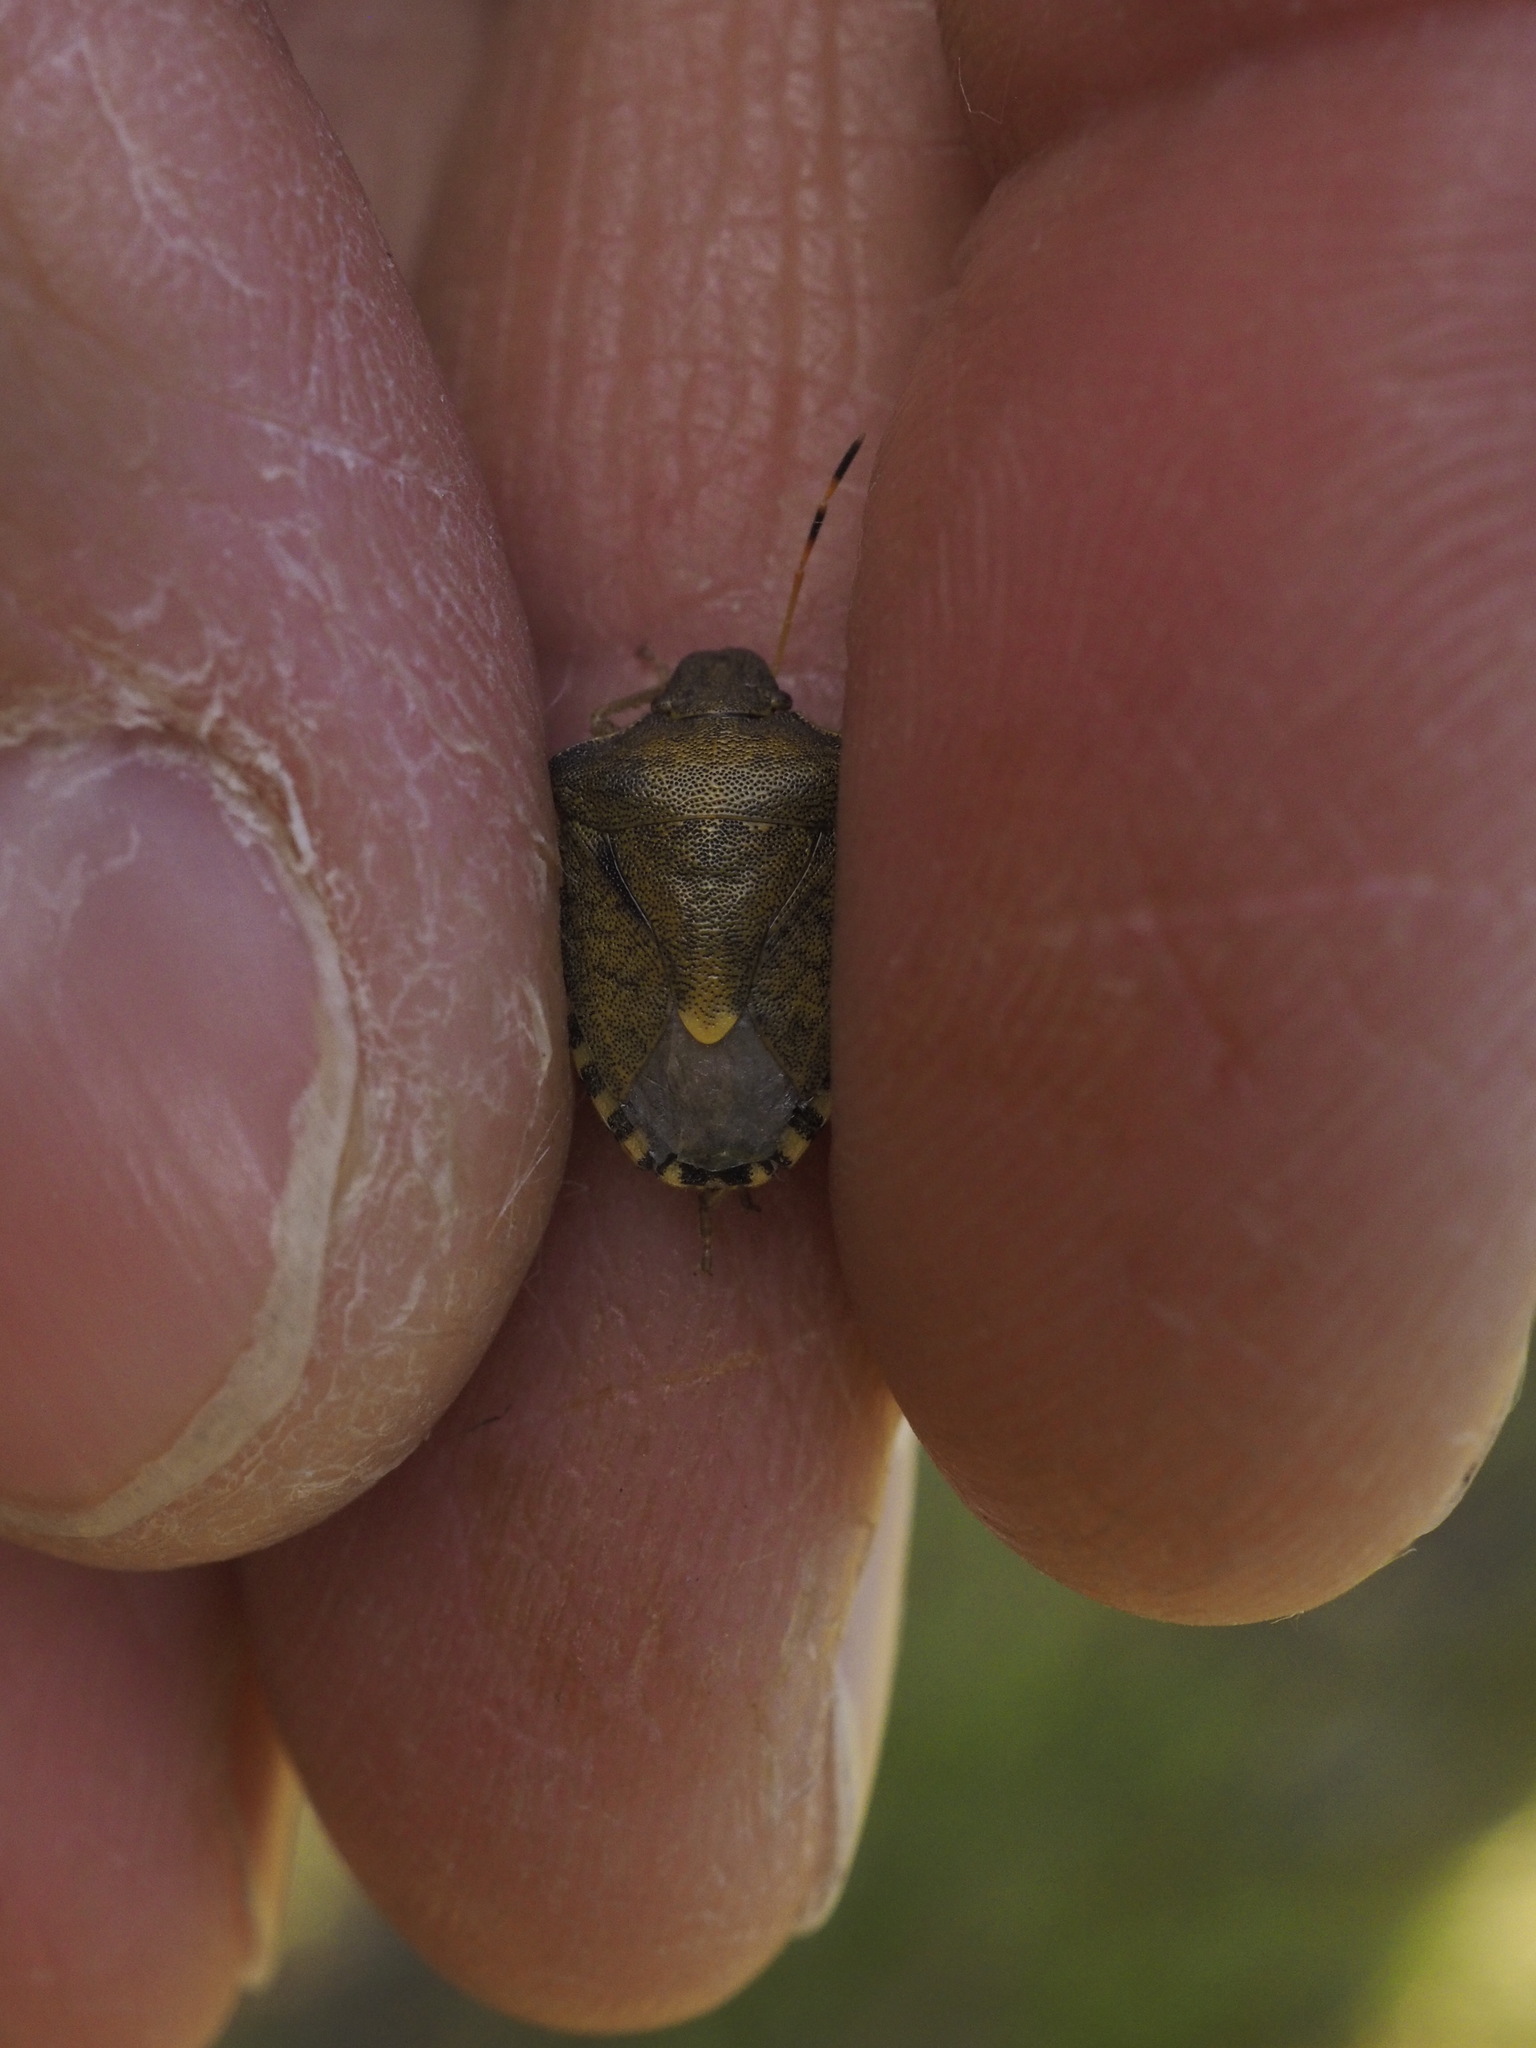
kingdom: Animalia
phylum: Arthropoda
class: Insecta
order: Hemiptera
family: Pentatomidae
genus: Holcostethus
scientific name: Holcostethus strictus
